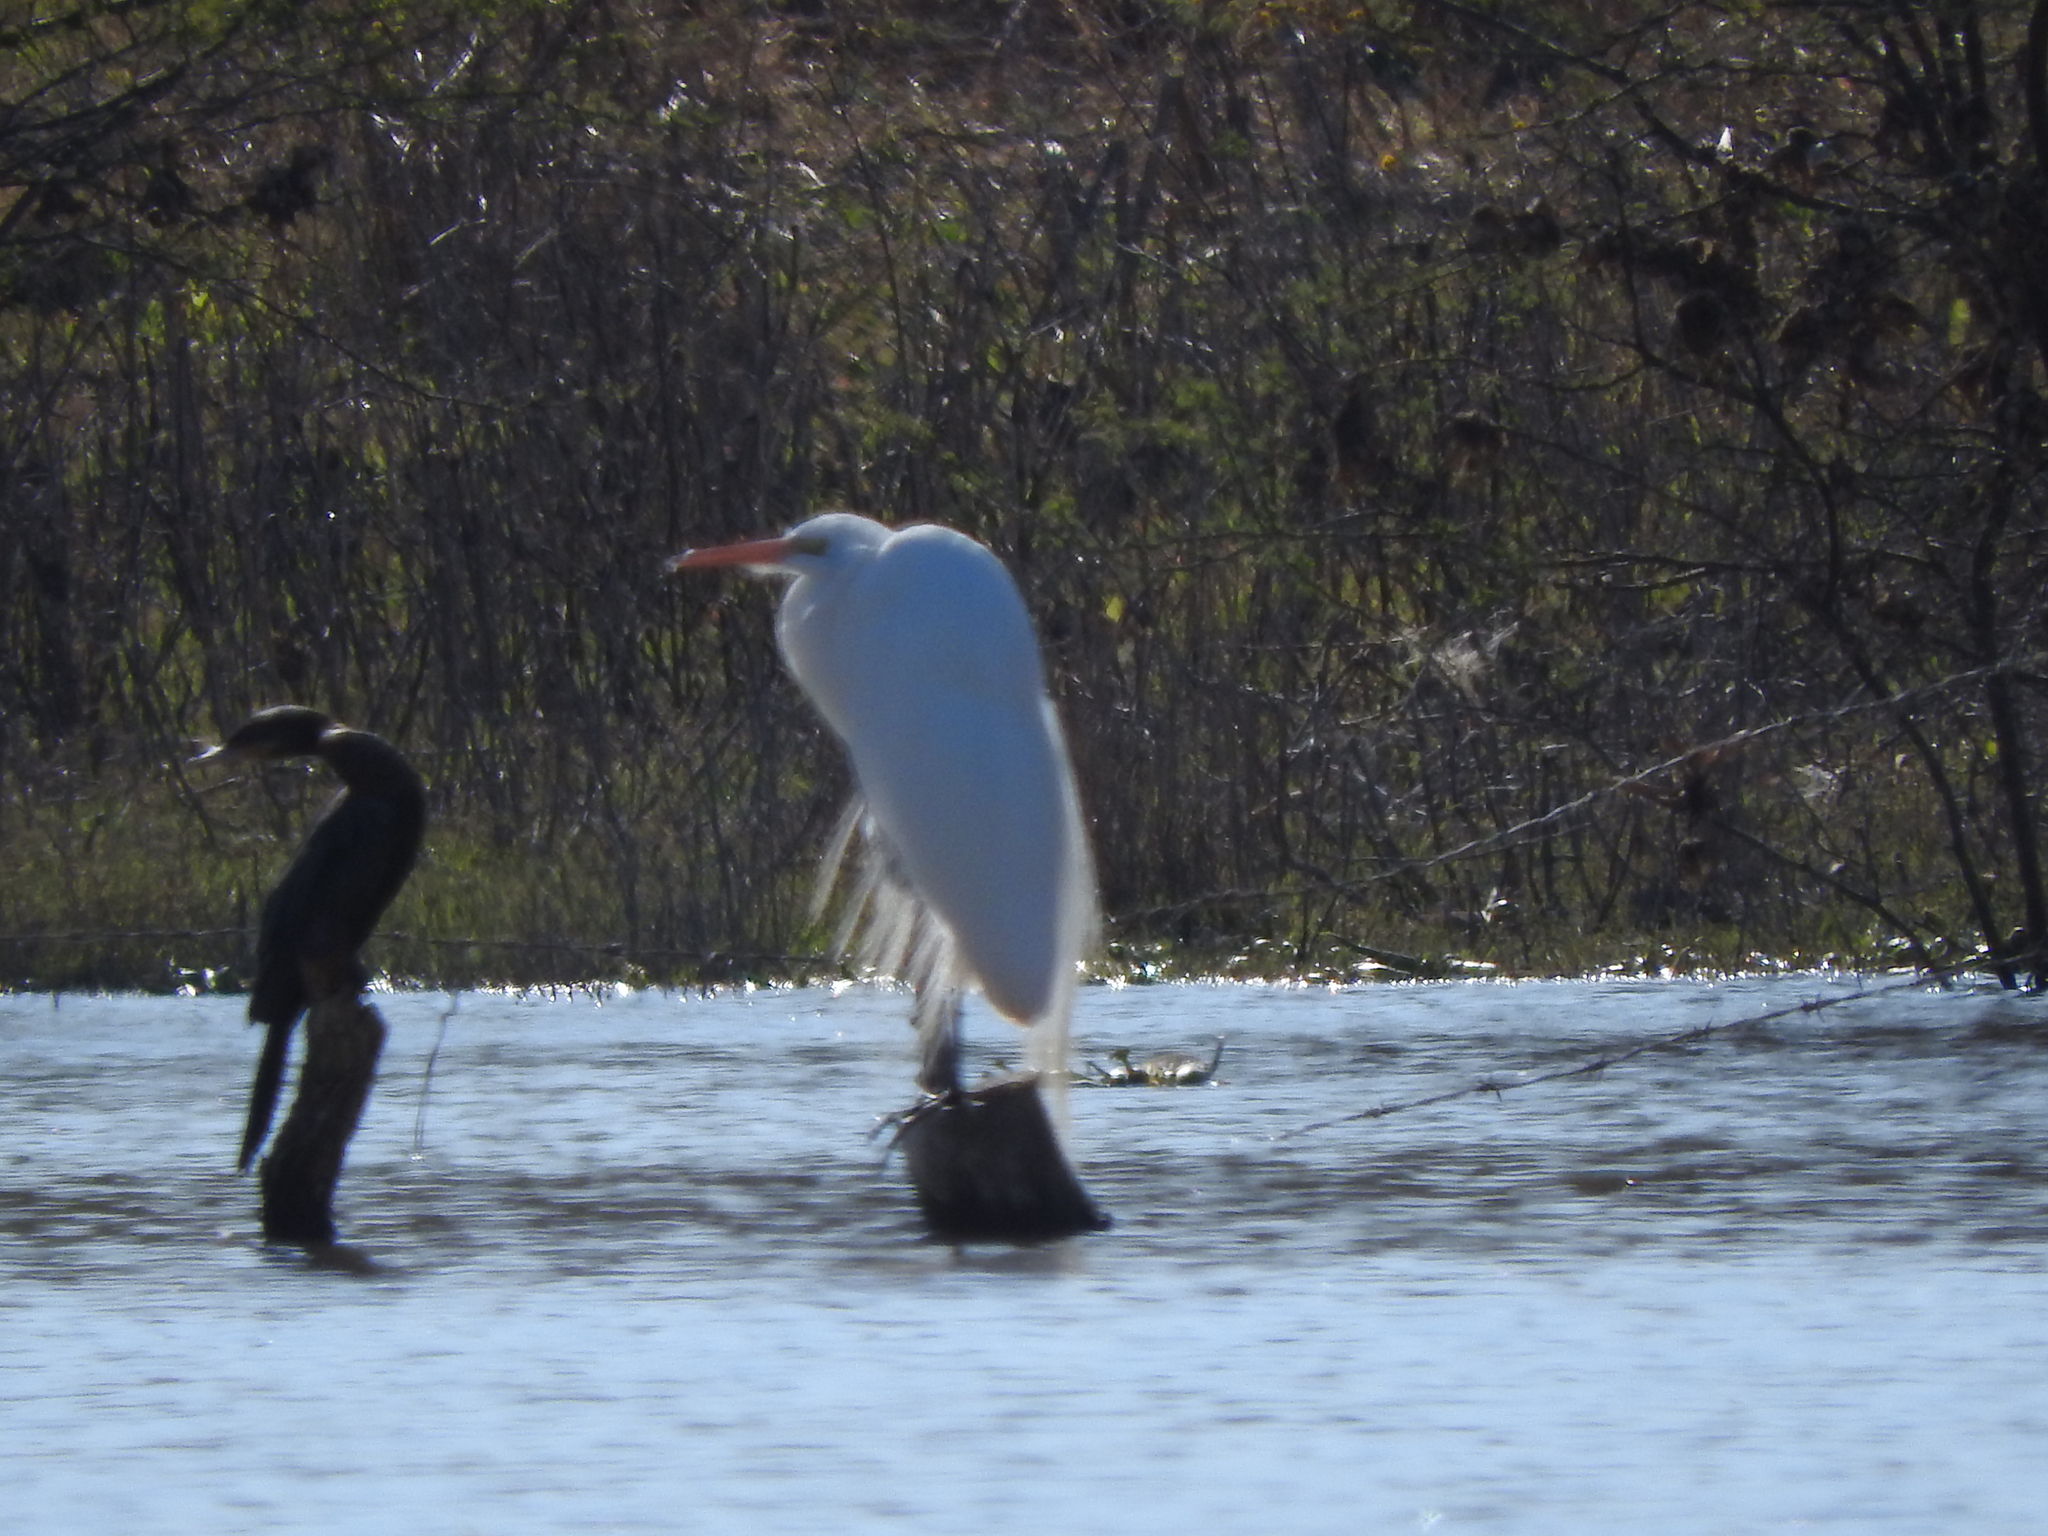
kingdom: Animalia
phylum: Chordata
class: Aves
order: Pelecaniformes
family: Ardeidae
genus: Ardea
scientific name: Ardea alba
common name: Great egret
